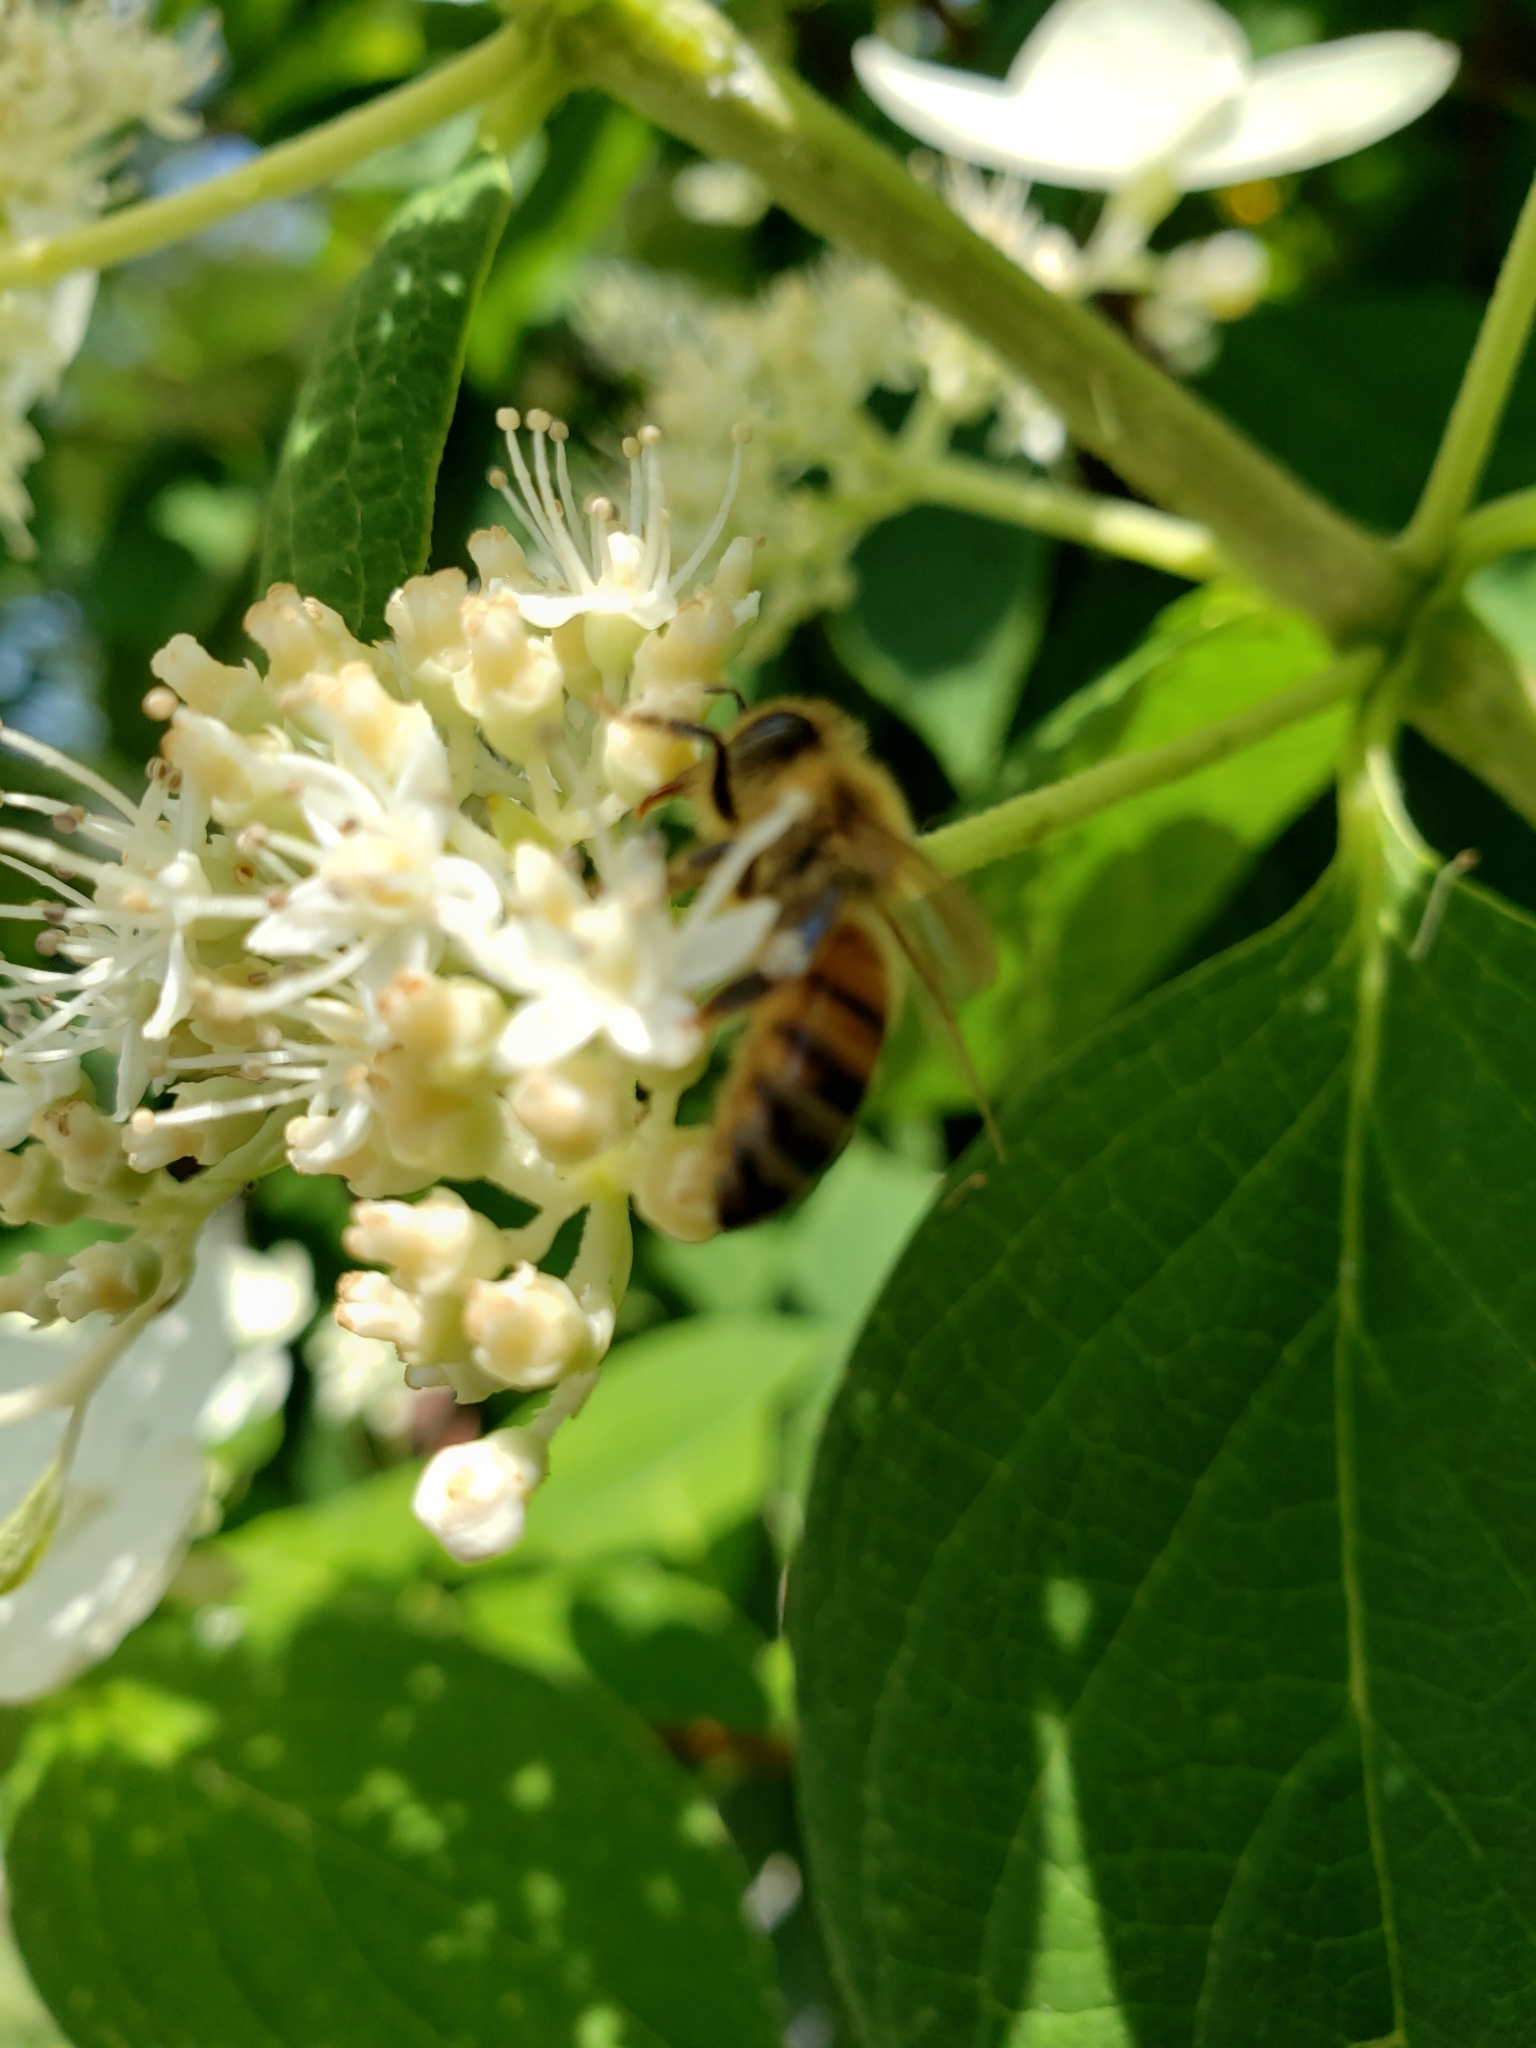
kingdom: Animalia
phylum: Arthropoda
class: Insecta
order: Hymenoptera
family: Apidae
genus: Apis
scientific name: Apis mellifera
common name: Honey bee
